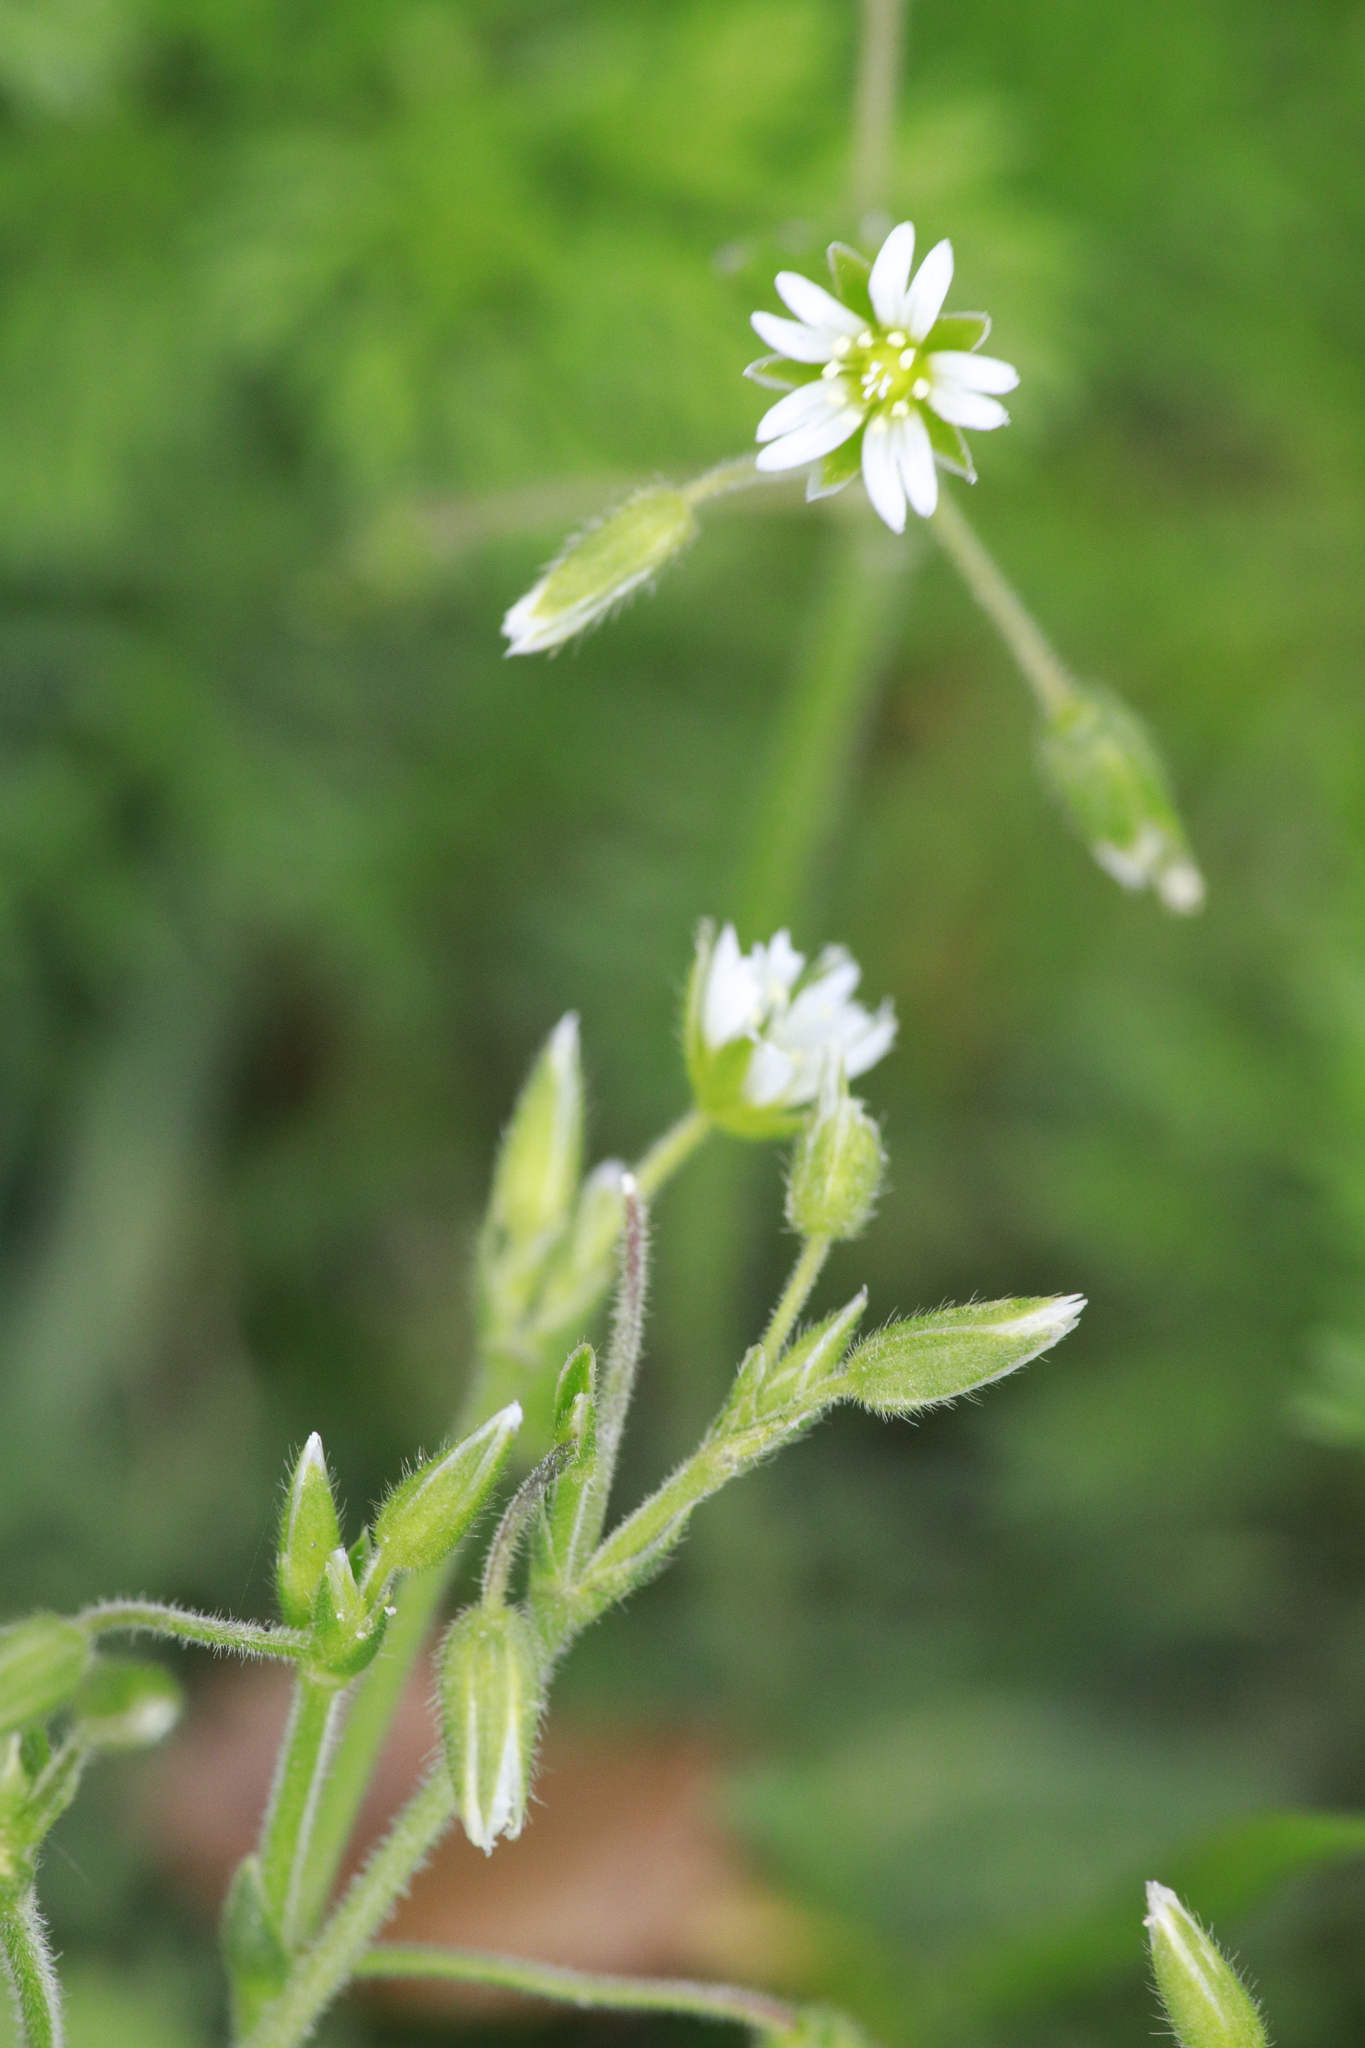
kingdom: Plantae
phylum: Tracheophyta
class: Magnoliopsida
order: Caryophyllales
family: Caryophyllaceae
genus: Cerastium
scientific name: Cerastium fontanum
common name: Common mouse-ear
